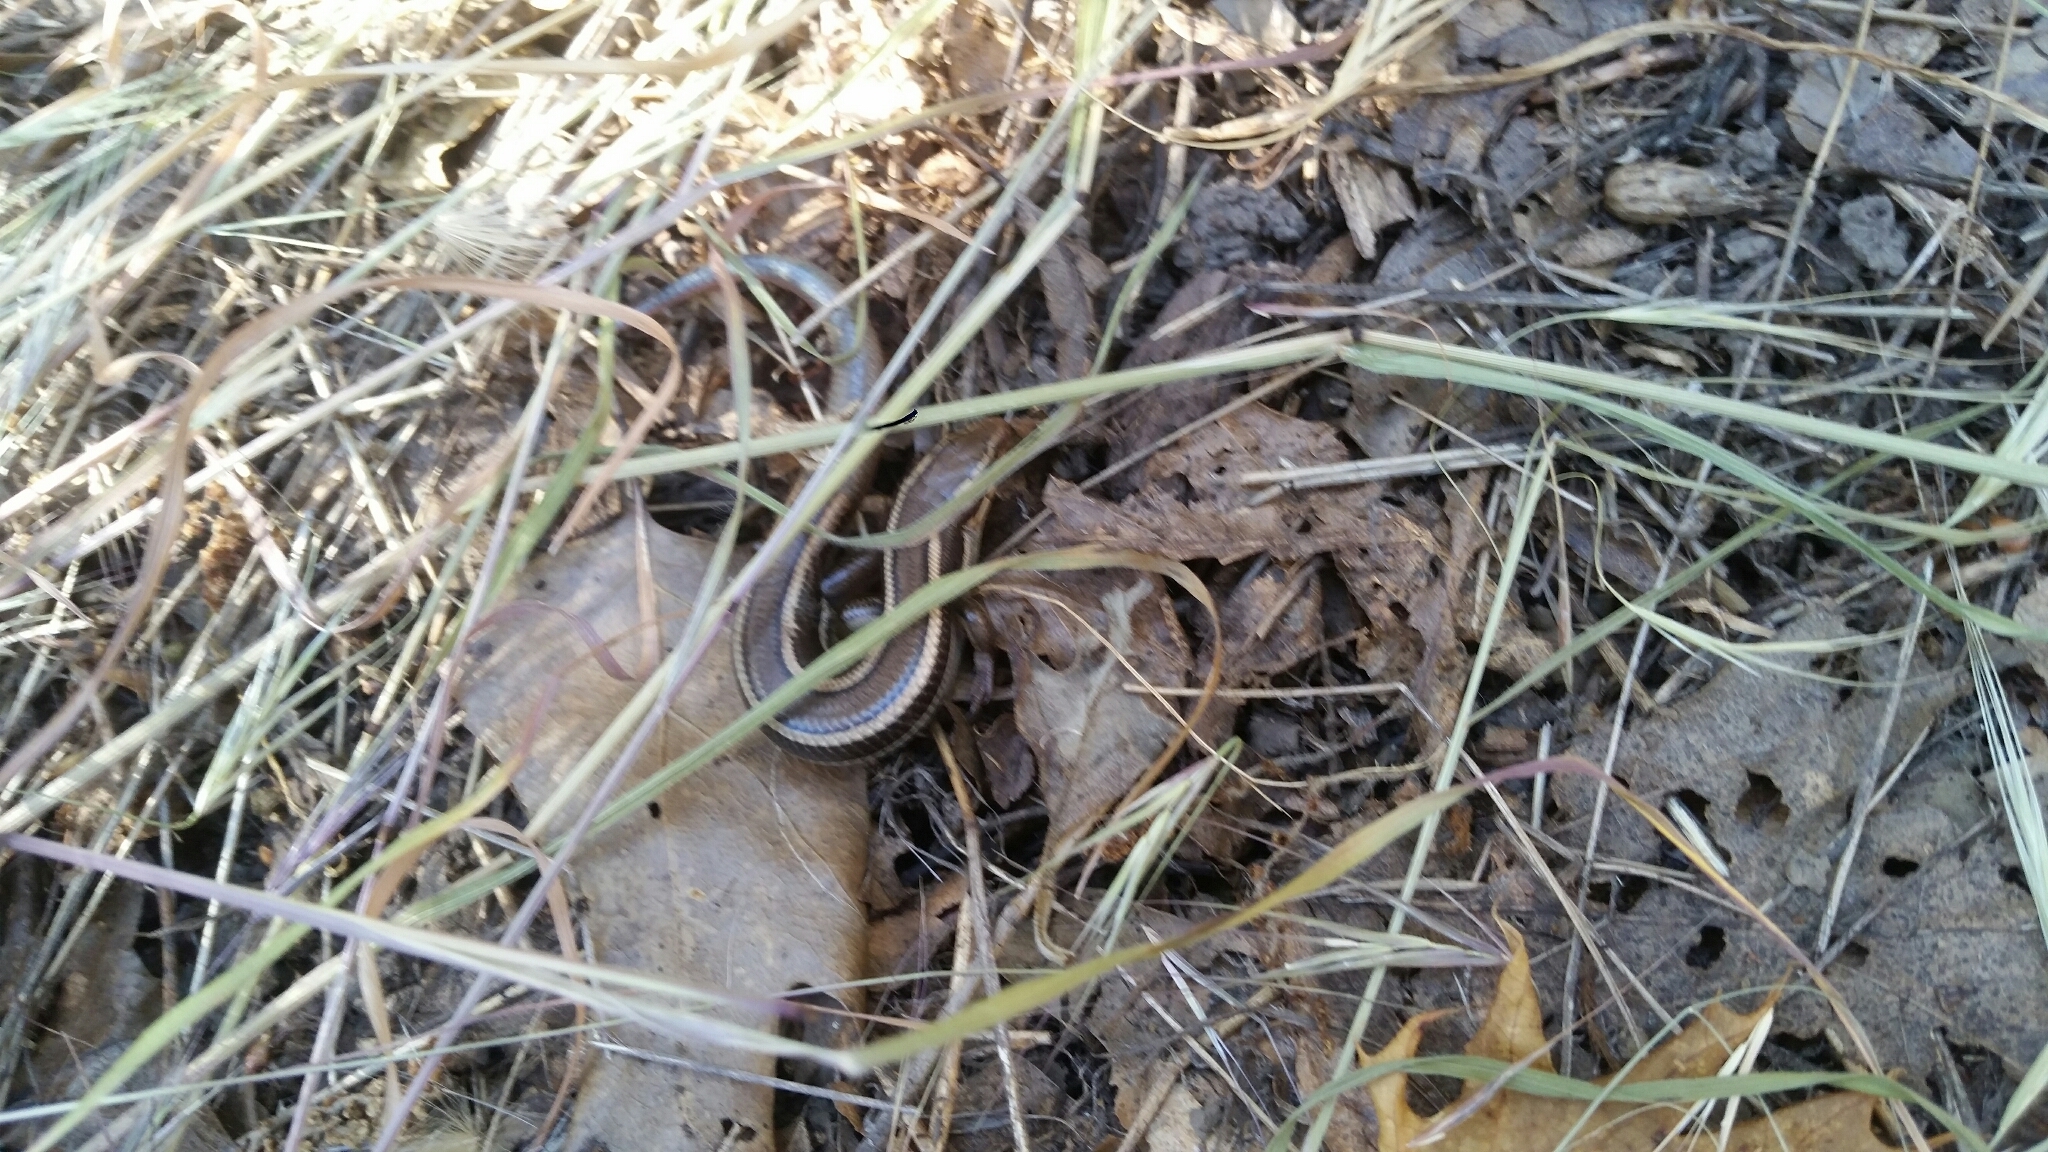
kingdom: Animalia
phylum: Chordata
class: Squamata
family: Scincidae
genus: Plestiodon
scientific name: Plestiodon skiltonianus
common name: Coronado island skink [interparietalis]
